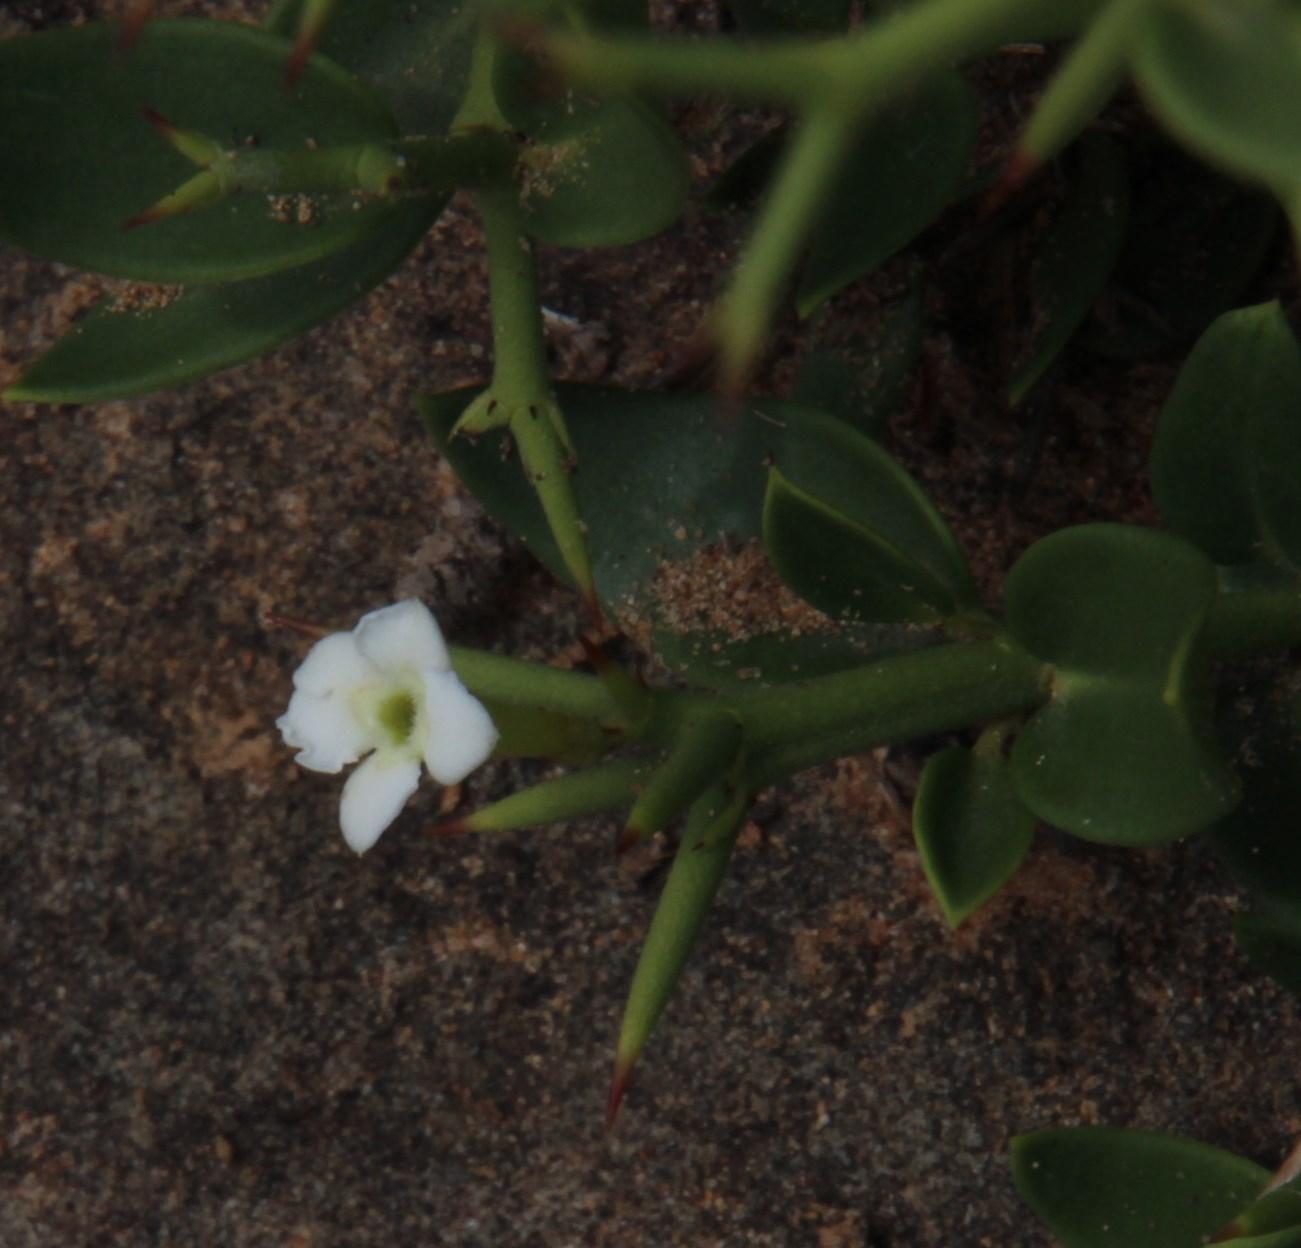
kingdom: Plantae
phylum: Tracheophyta
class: Magnoliopsida
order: Gentianales
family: Apocynaceae
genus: Carissa
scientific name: Carissa haematocarpa
